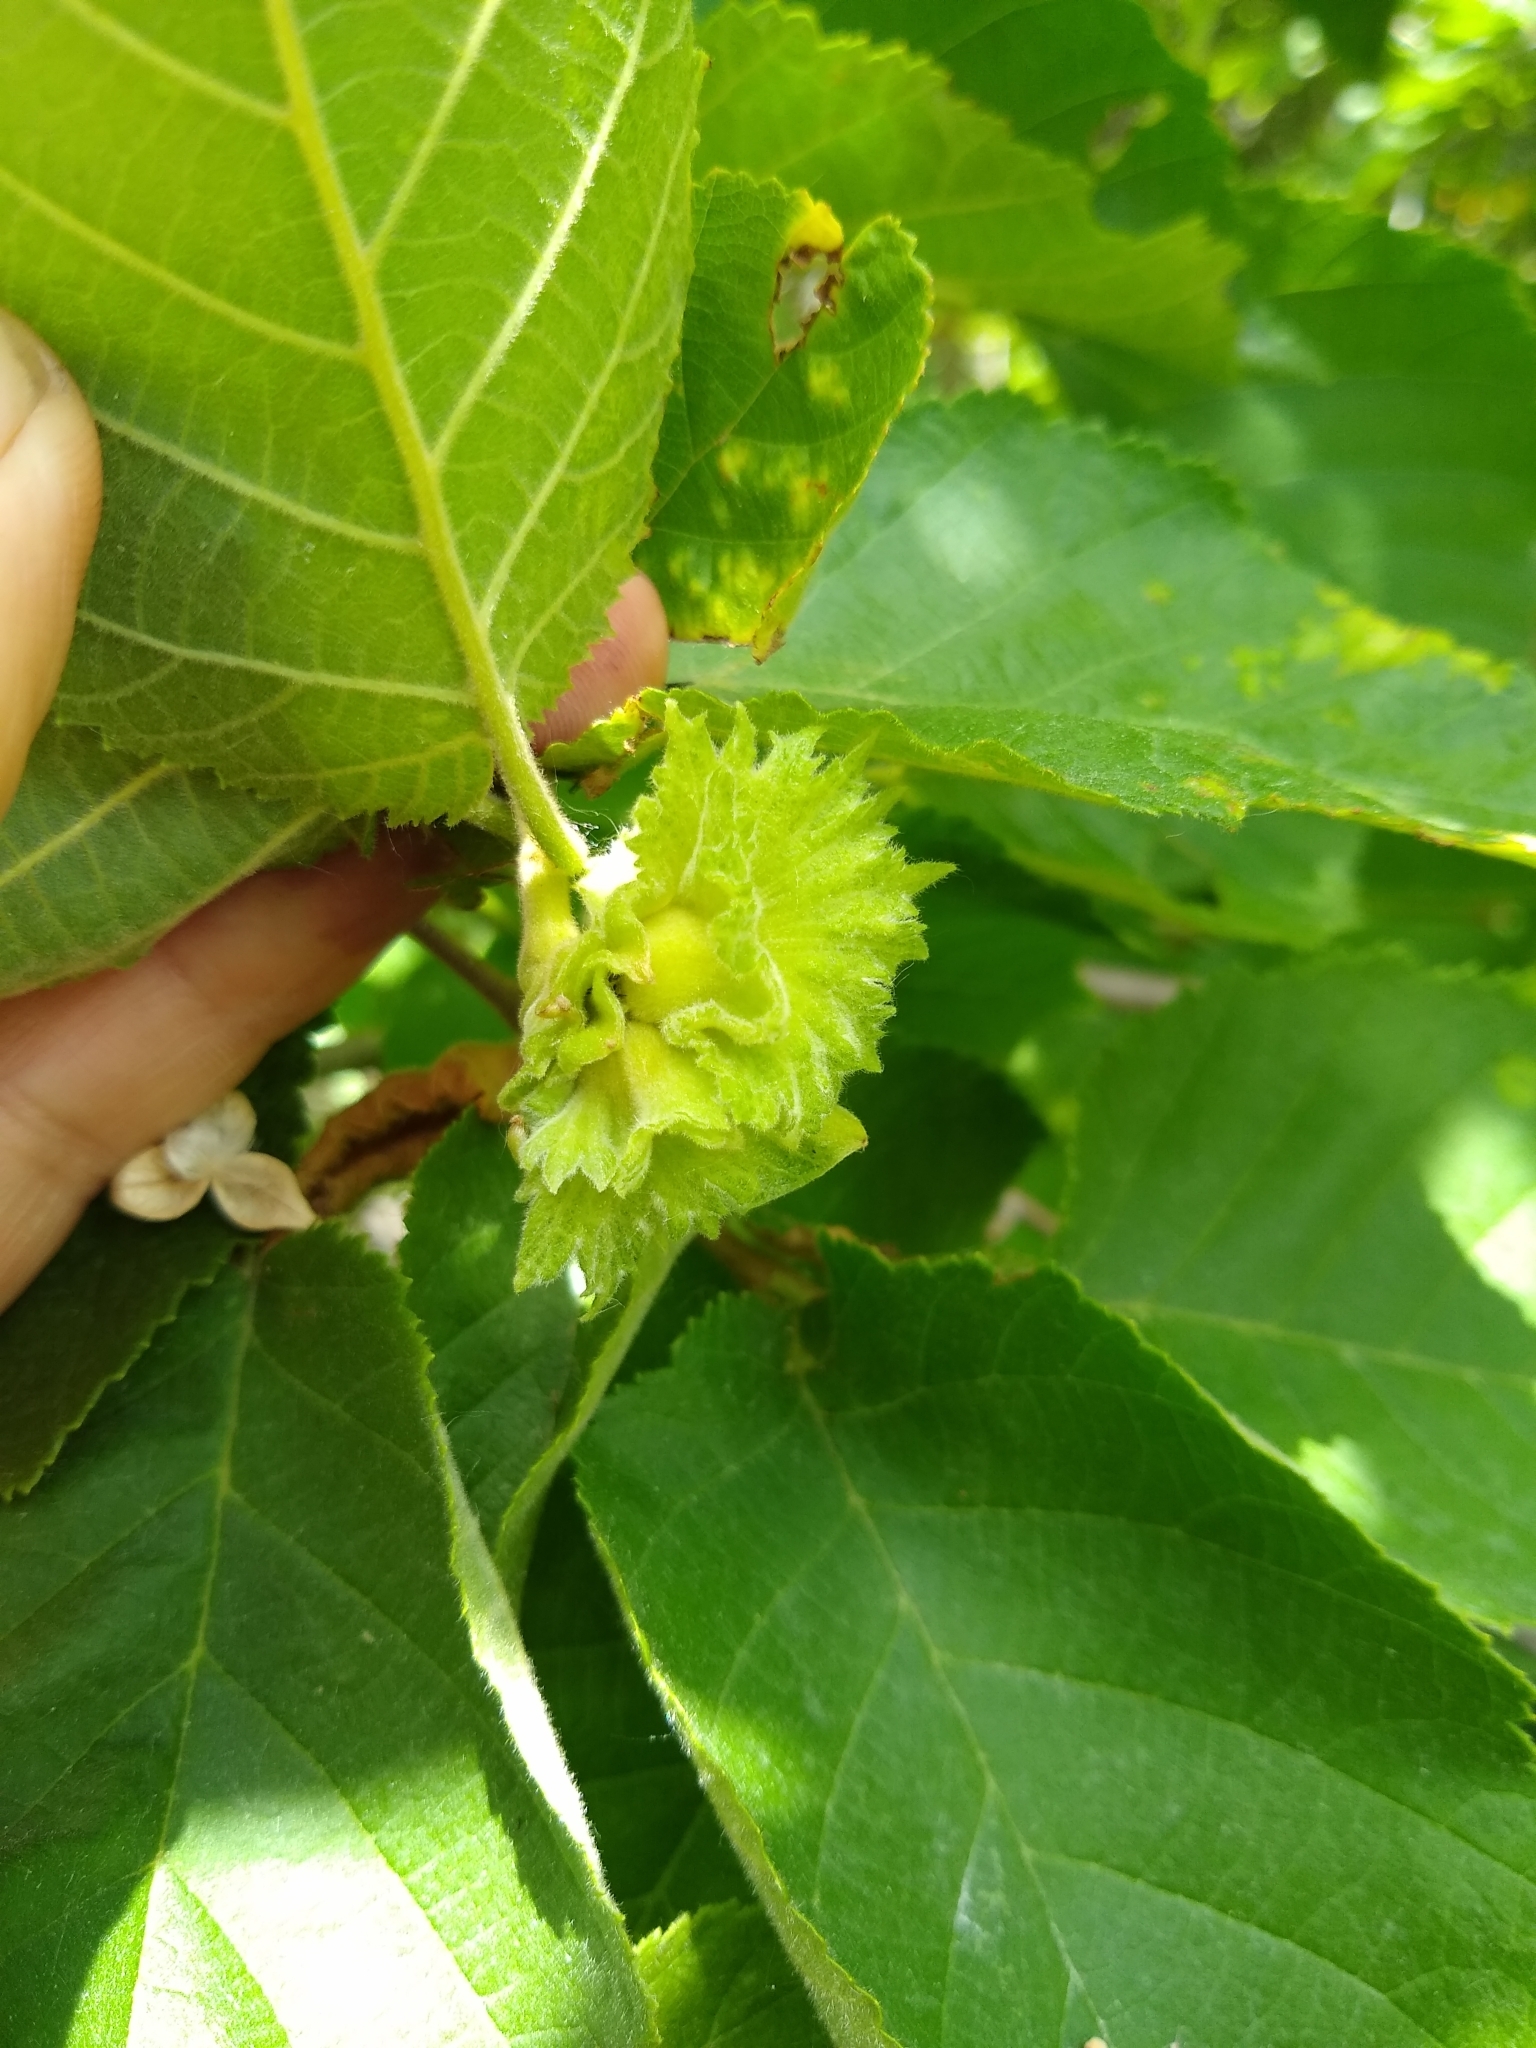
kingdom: Plantae
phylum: Tracheophyta
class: Magnoliopsida
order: Fagales
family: Betulaceae
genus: Corylus
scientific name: Corylus americana
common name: American hazel
